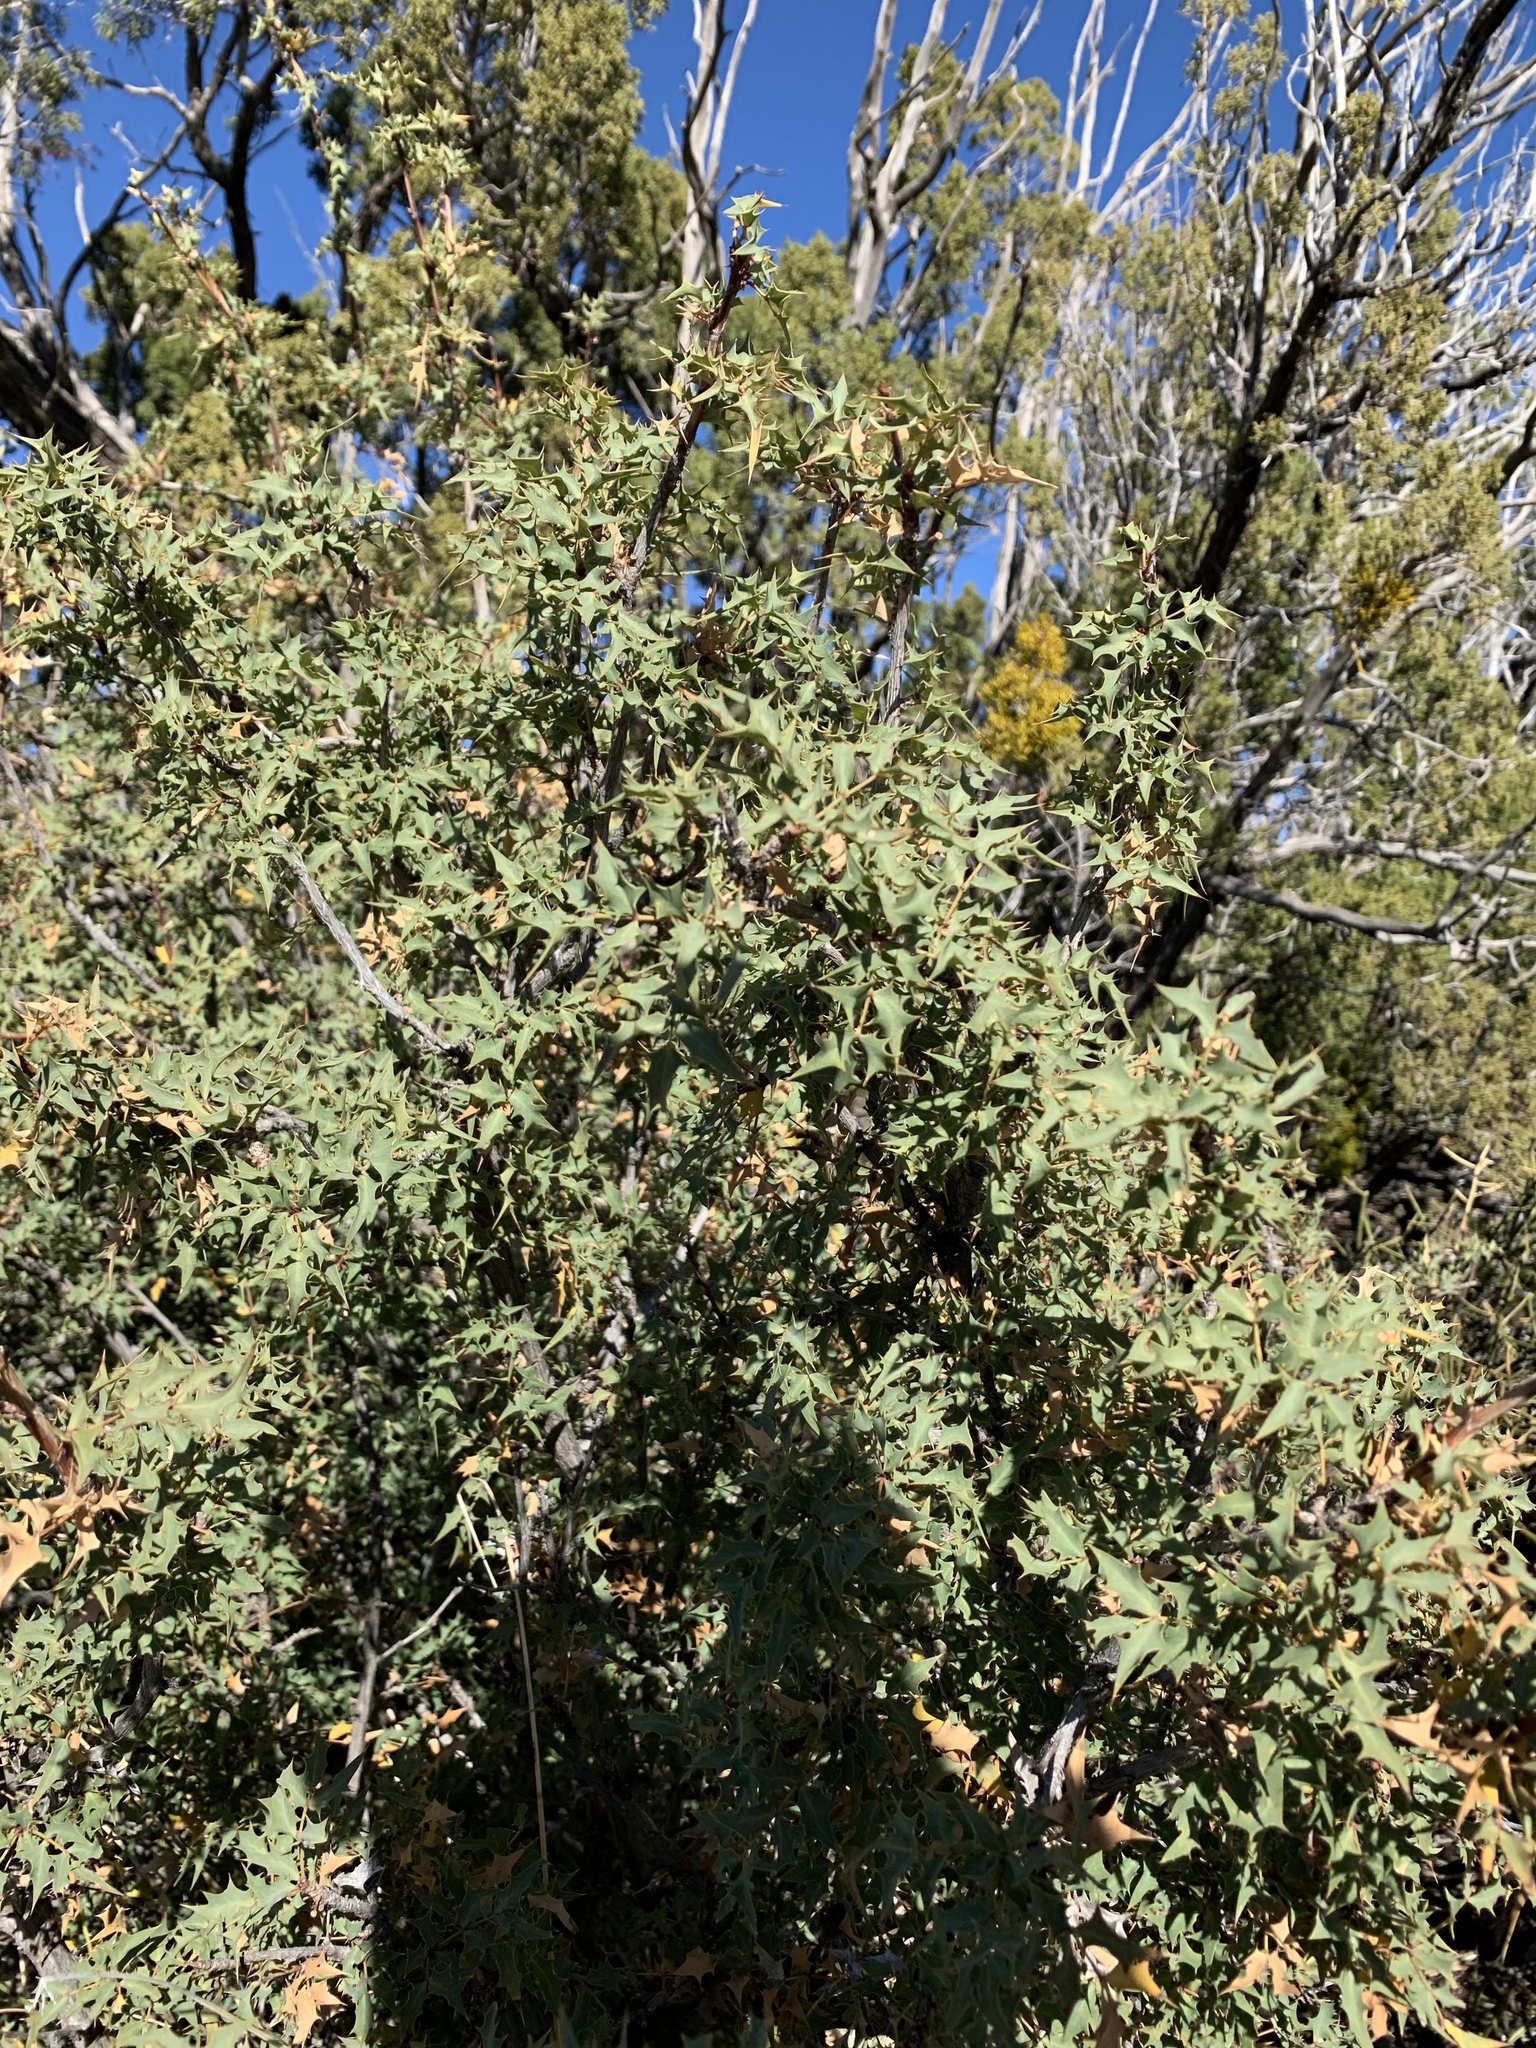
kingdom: Plantae
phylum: Tracheophyta
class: Magnoliopsida
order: Ranunculales
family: Berberidaceae
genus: Alloberberis
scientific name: Alloberberis haematocarpa
